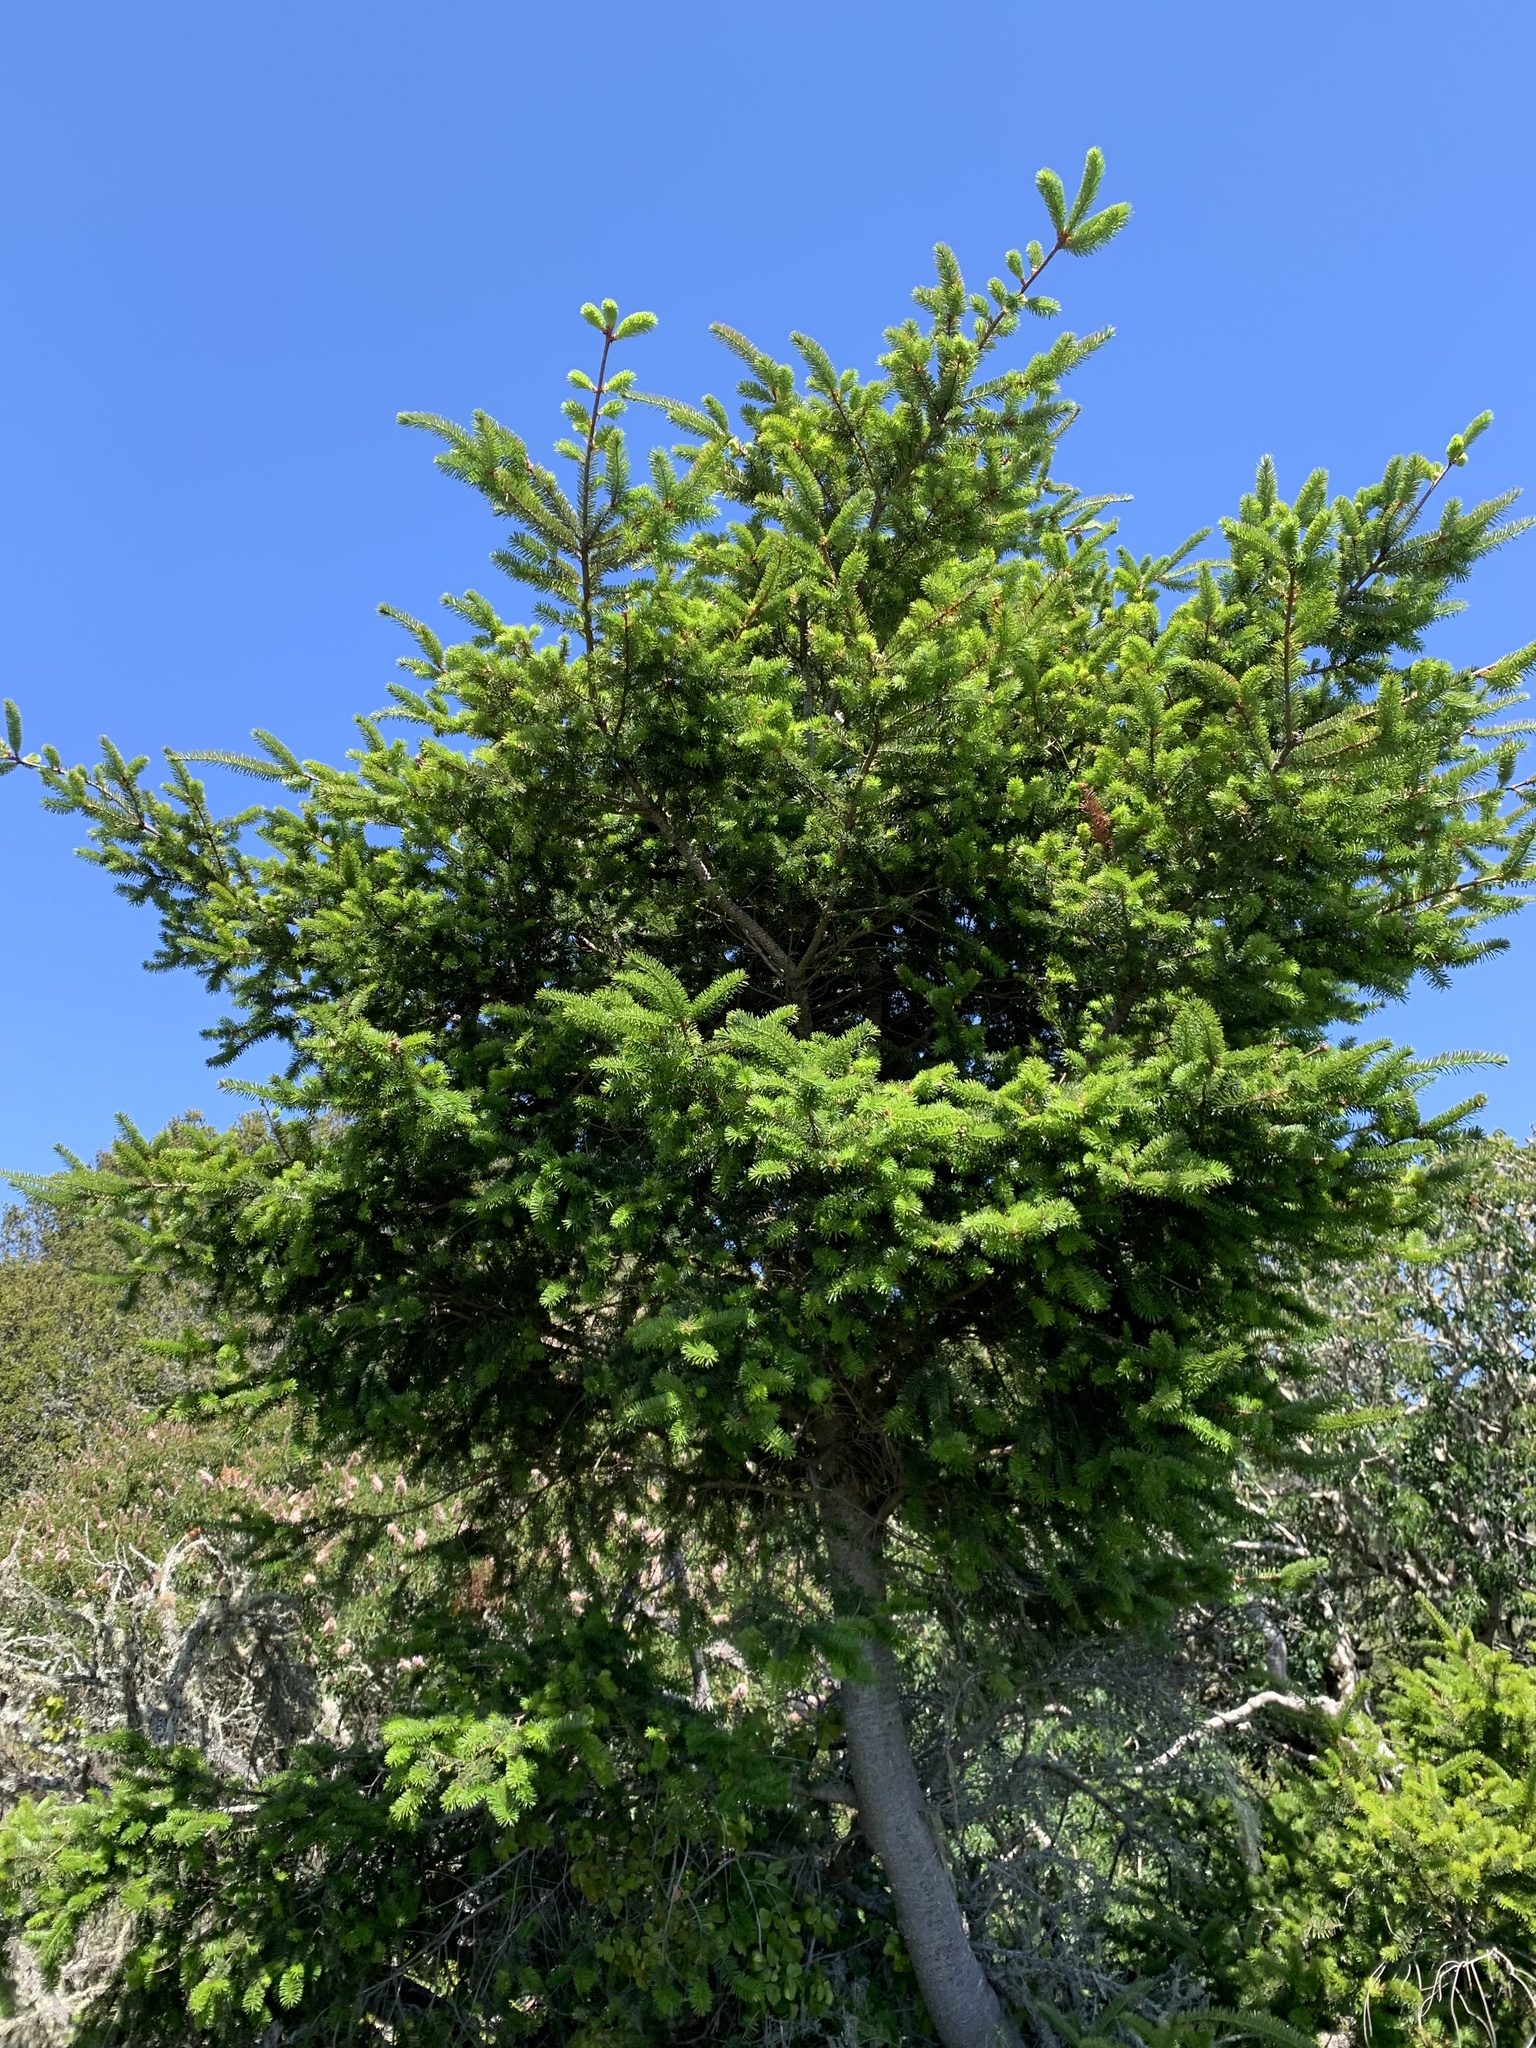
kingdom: Plantae
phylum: Tracheophyta
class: Pinopsida
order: Pinales
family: Pinaceae
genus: Pseudotsuga
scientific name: Pseudotsuga menziesii
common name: Douglas fir
